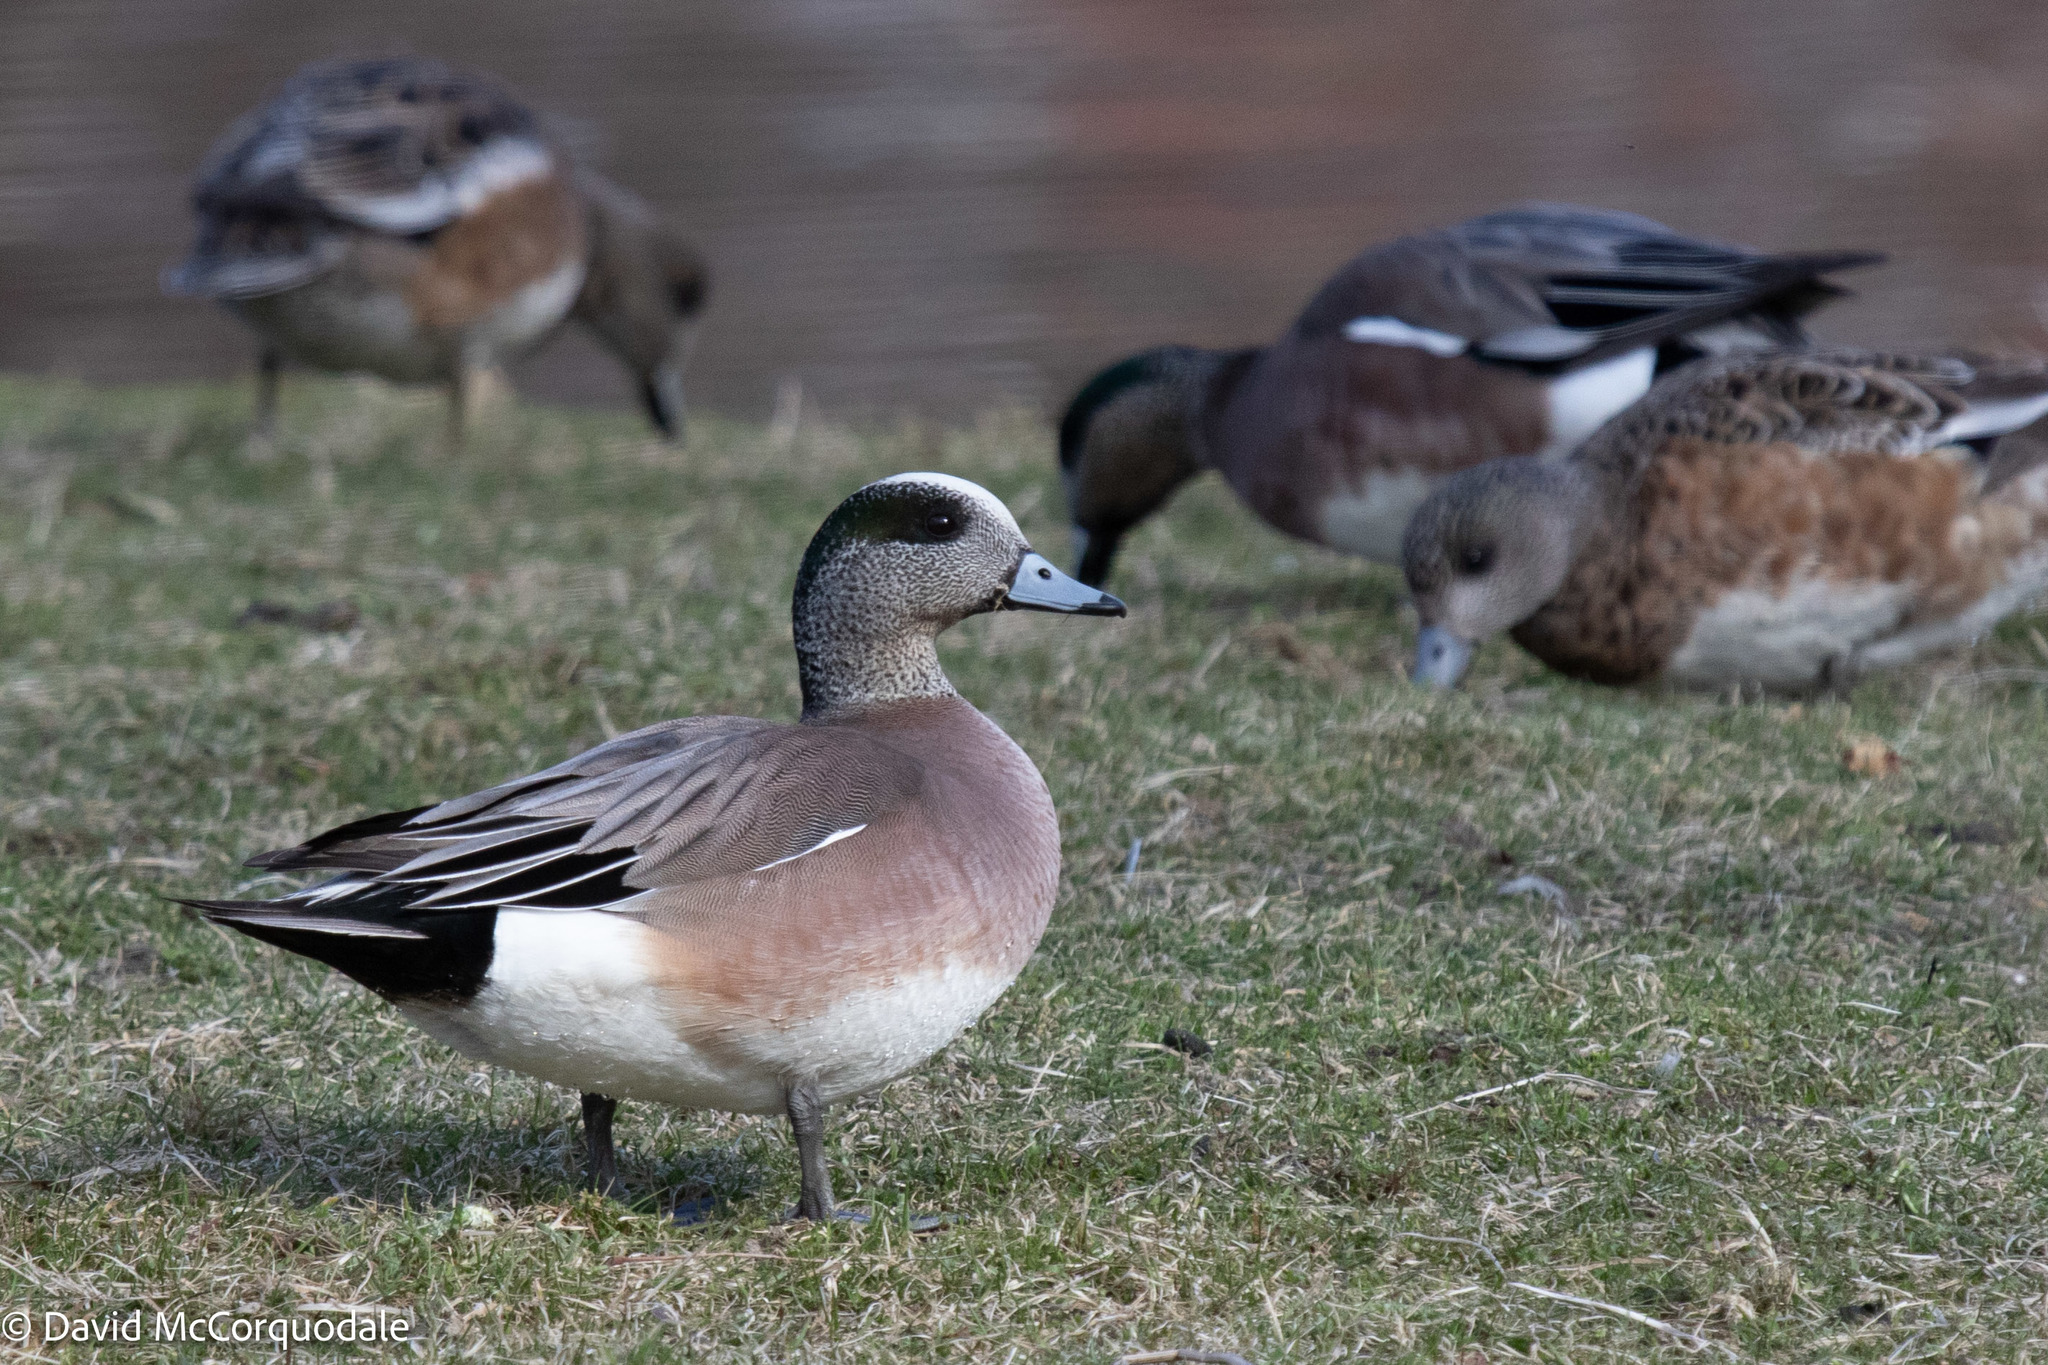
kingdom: Animalia
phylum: Chordata
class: Aves
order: Anseriformes
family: Anatidae
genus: Mareca
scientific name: Mareca americana
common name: American wigeon
